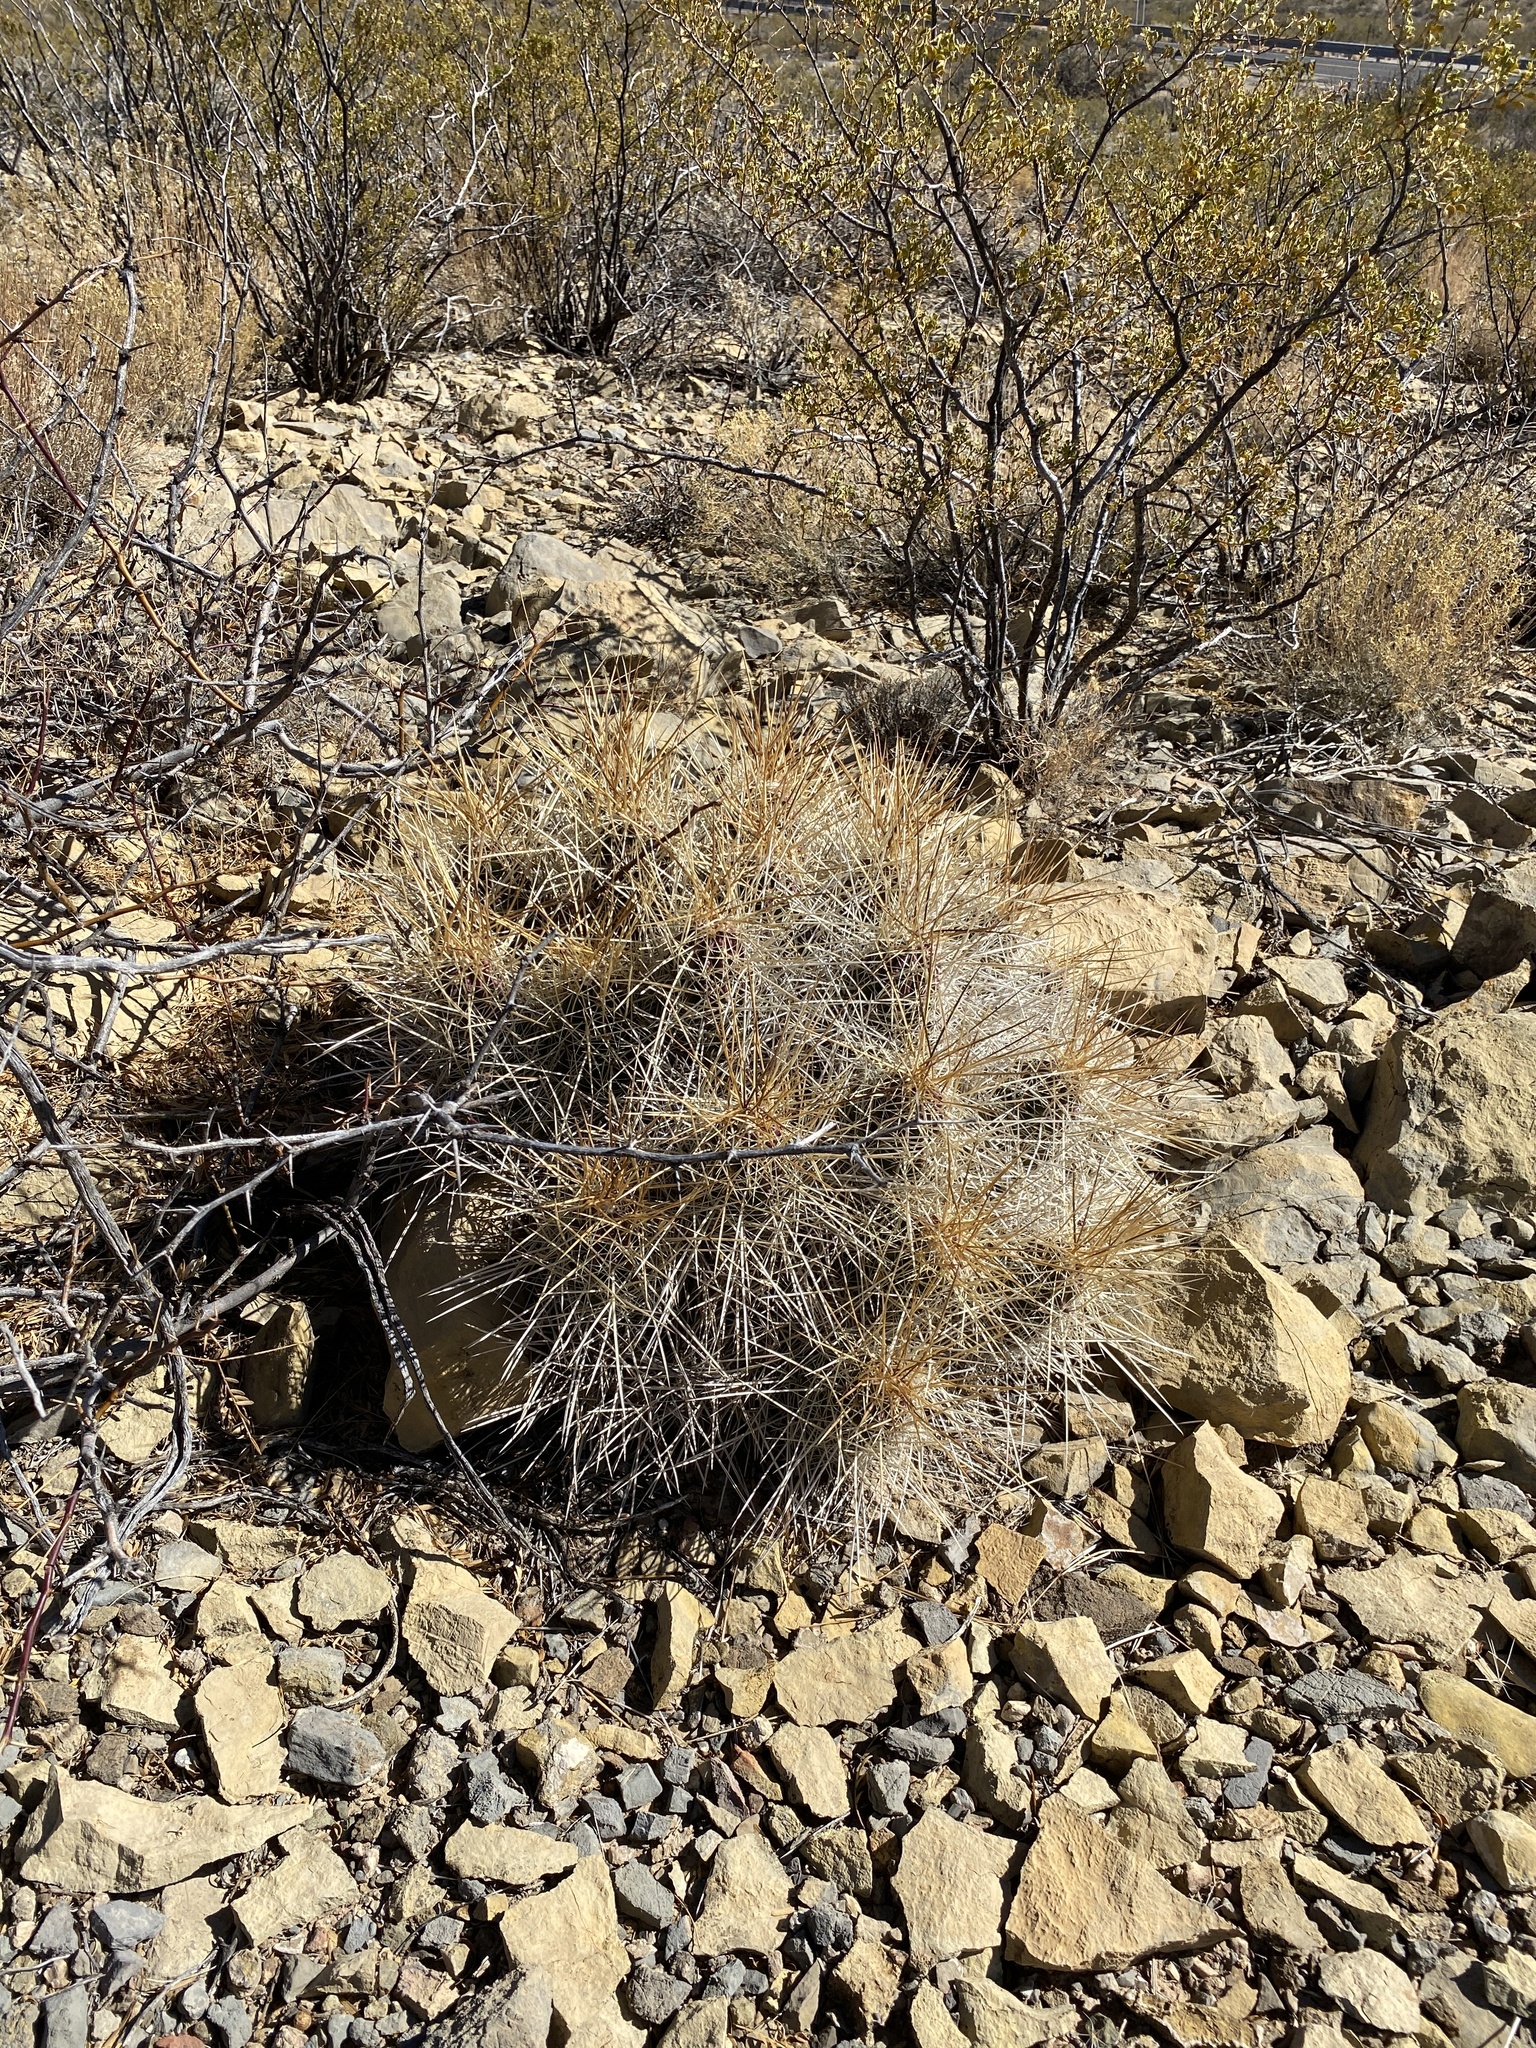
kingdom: Plantae
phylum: Tracheophyta
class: Magnoliopsida
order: Caryophyllales
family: Cactaceae
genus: Echinocereus
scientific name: Echinocereus stramineus
